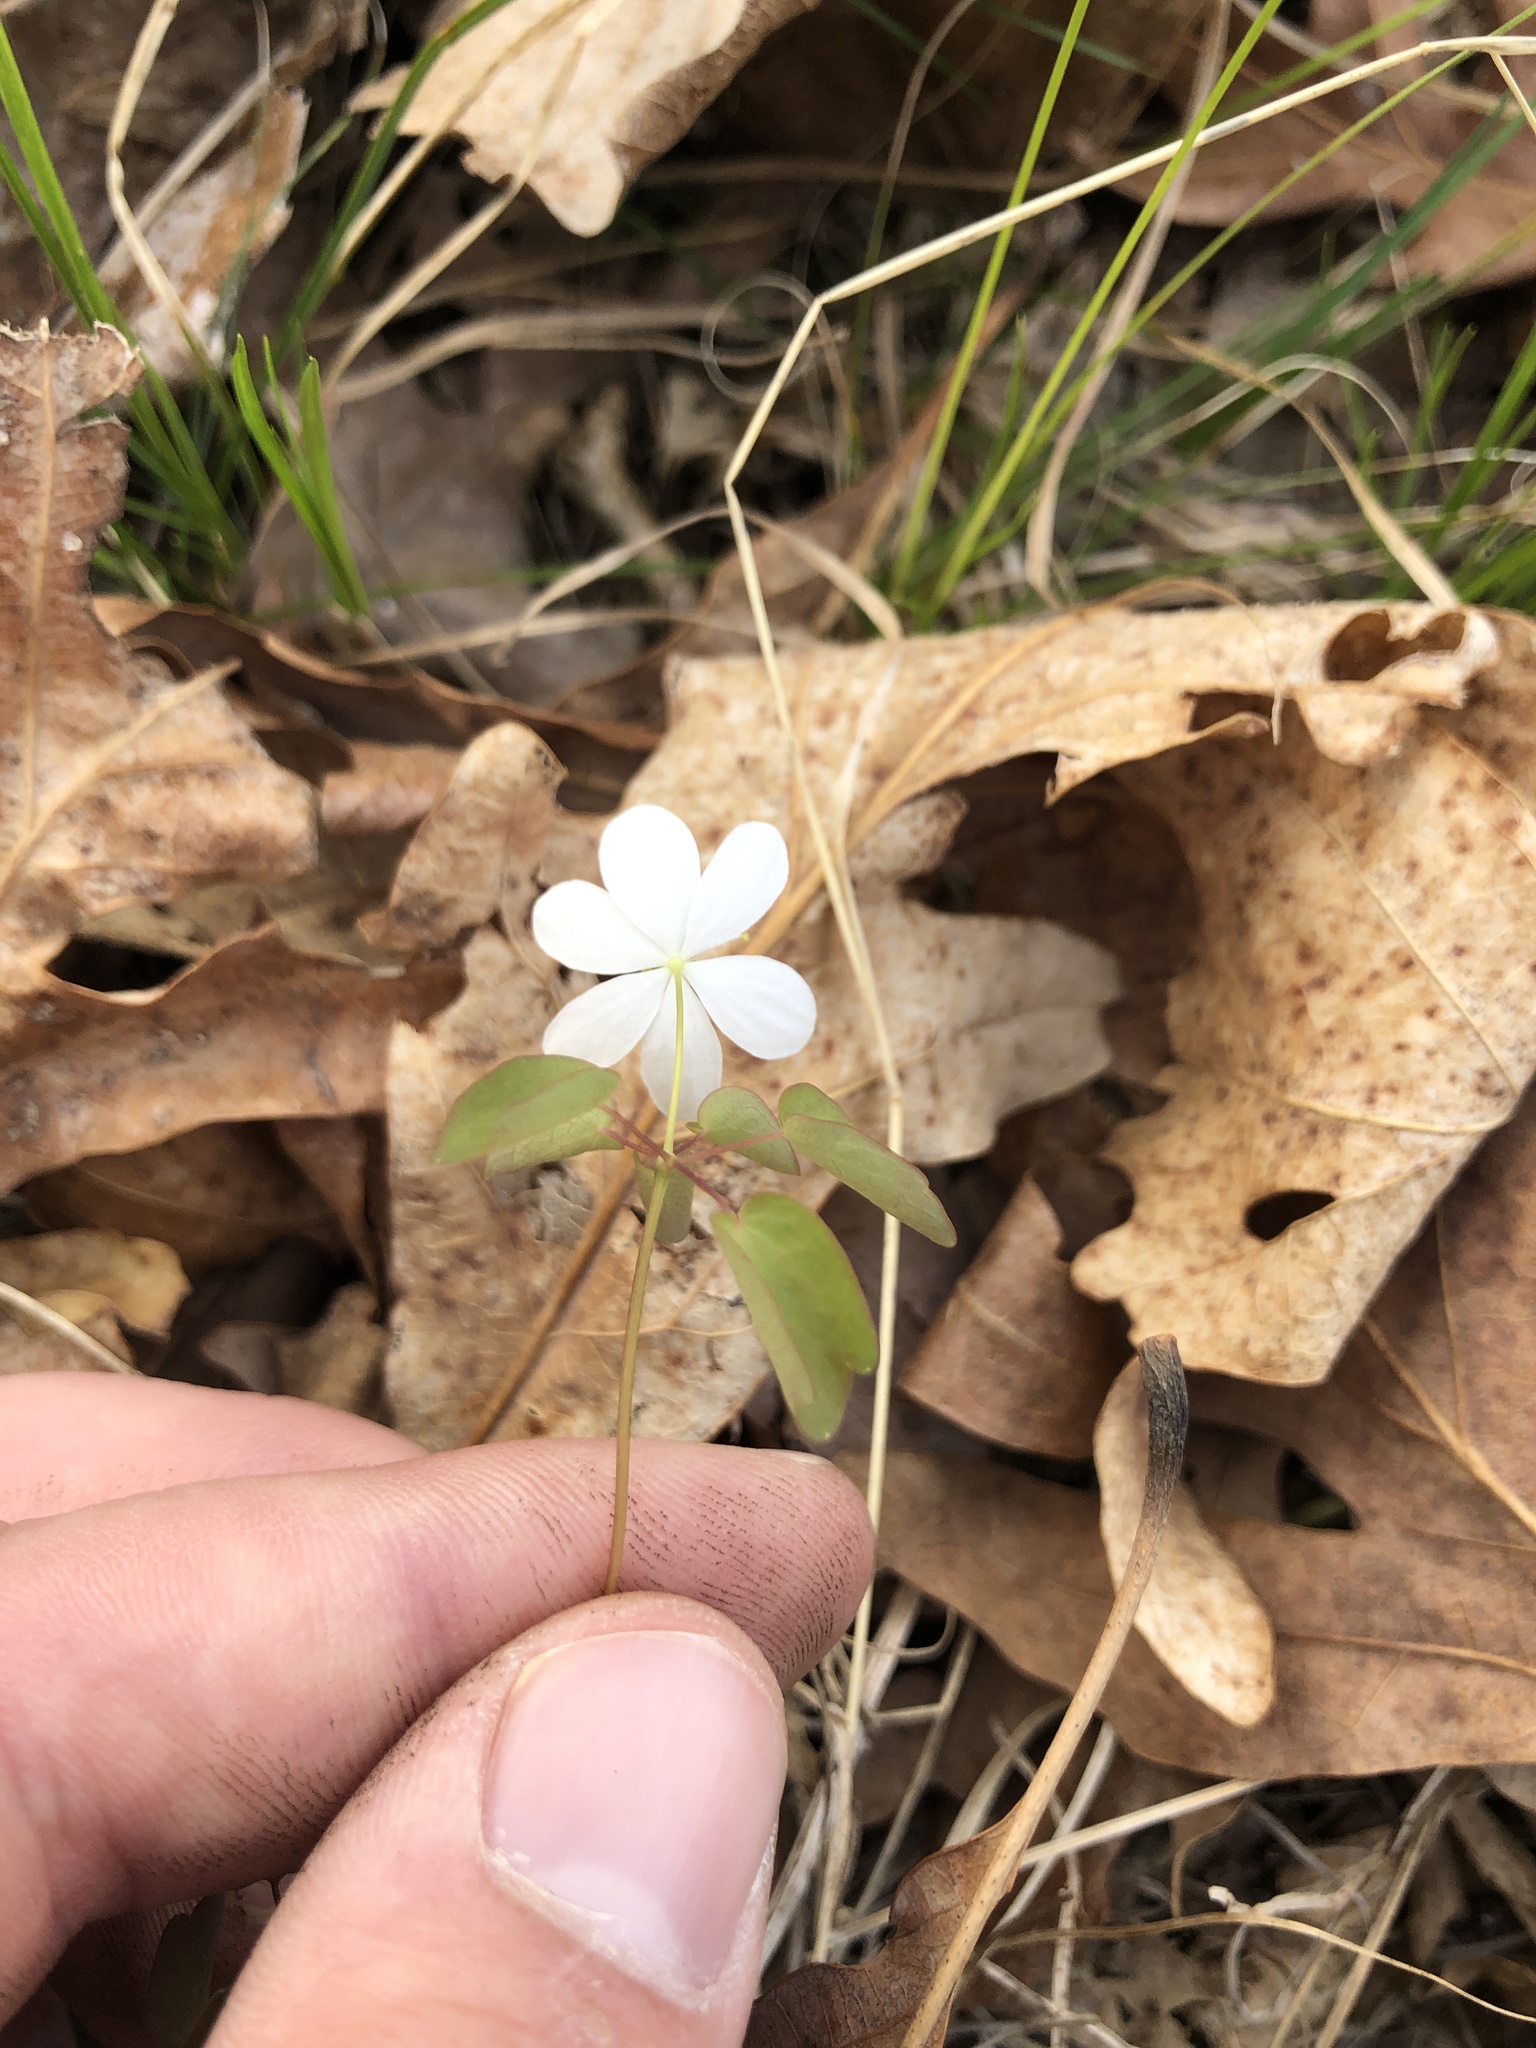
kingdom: Plantae
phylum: Tracheophyta
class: Magnoliopsida
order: Ranunculales
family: Ranunculaceae
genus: Thalictrum
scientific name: Thalictrum thalictroides
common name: Rue-anemone
